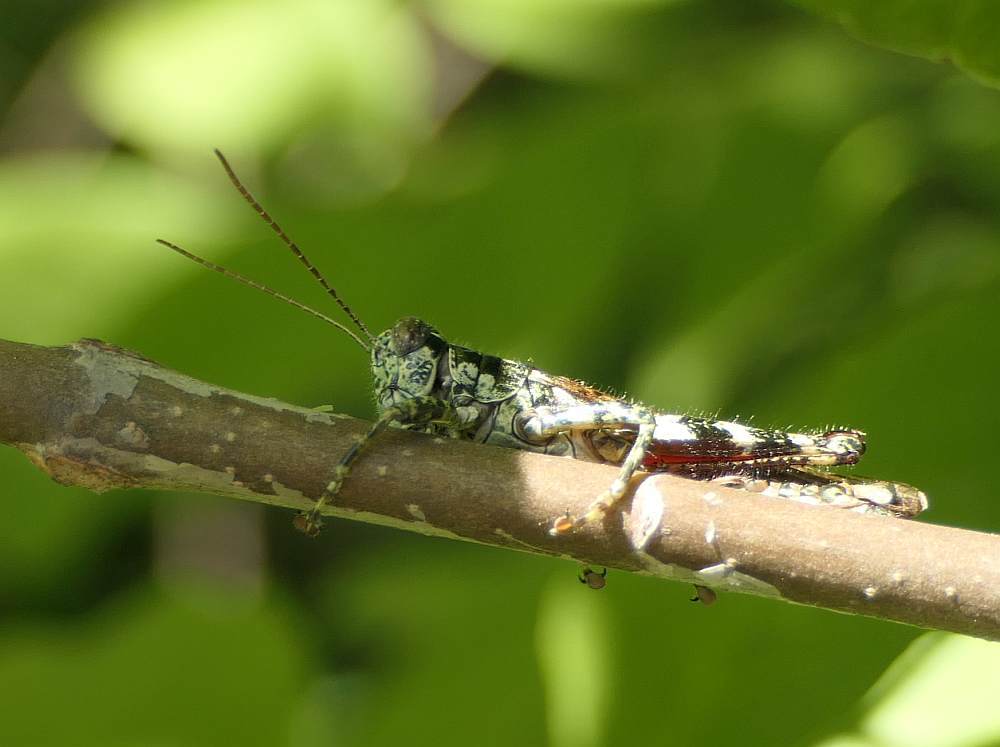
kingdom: Animalia
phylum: Arthropoda
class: Insecta
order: Orthoptera
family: Acrididae
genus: Melanoplus
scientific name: Melanoplus punctulatus
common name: Pine-tree spur-throat grasshopper
